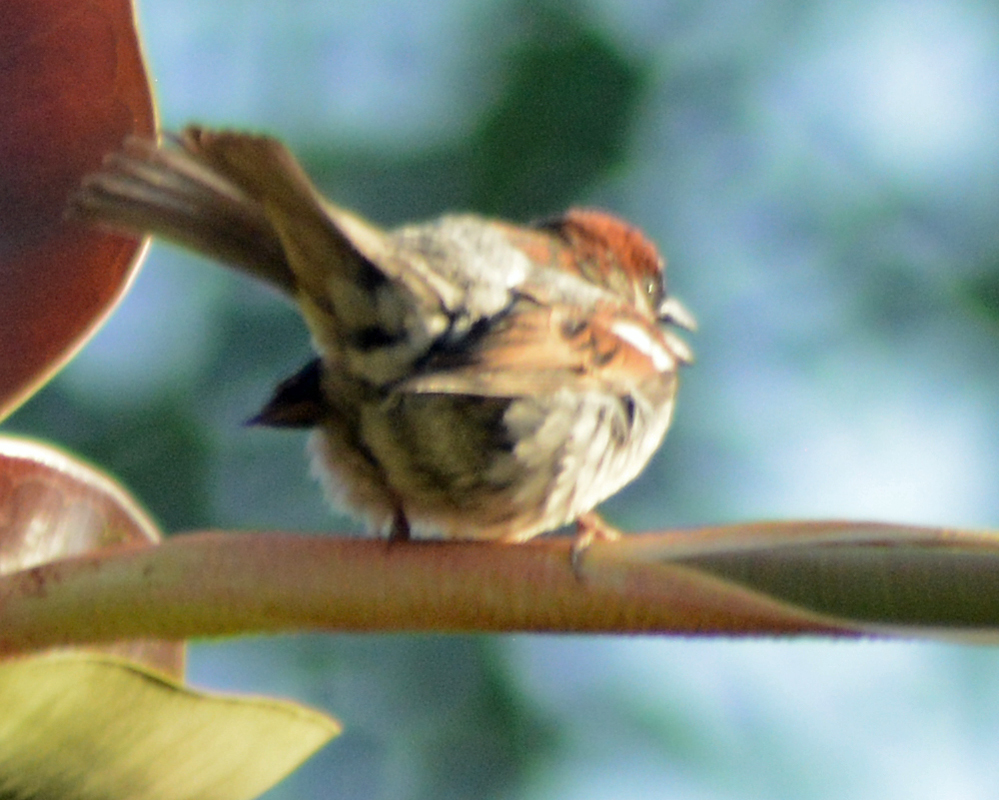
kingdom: Animalia
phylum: Chordata
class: Aves
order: Passeriformes
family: Passeridae
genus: Passer
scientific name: Passer domesticus
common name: House sparrow
